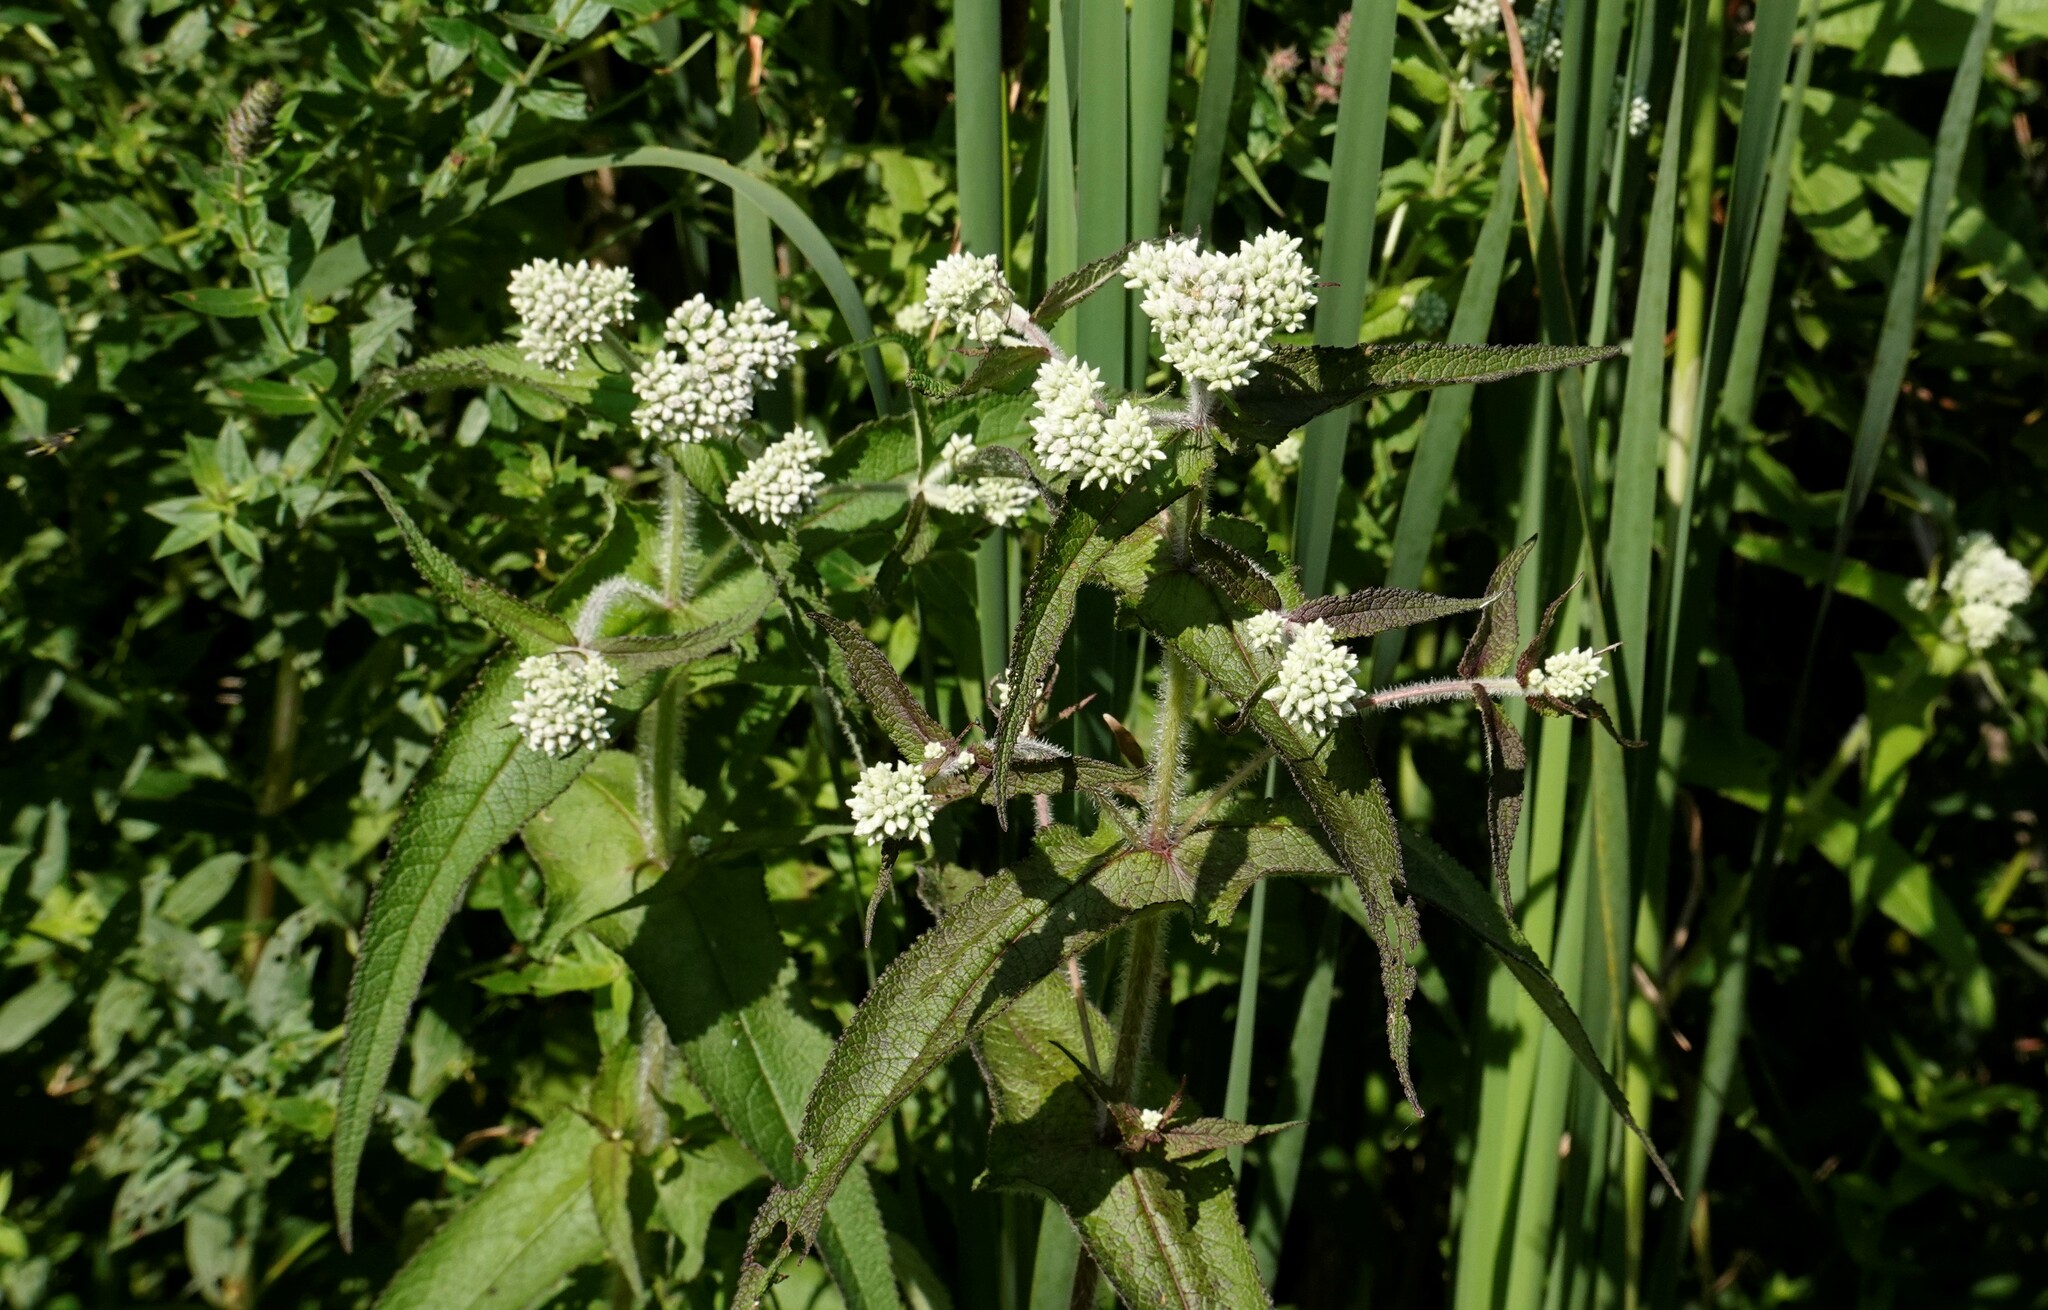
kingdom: Plantae
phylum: Tracheophyta
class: Magnoliopsida
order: Asterales
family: Asteraceae
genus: Eupatorium
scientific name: Eupatorium perfoliatum
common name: Boneset
